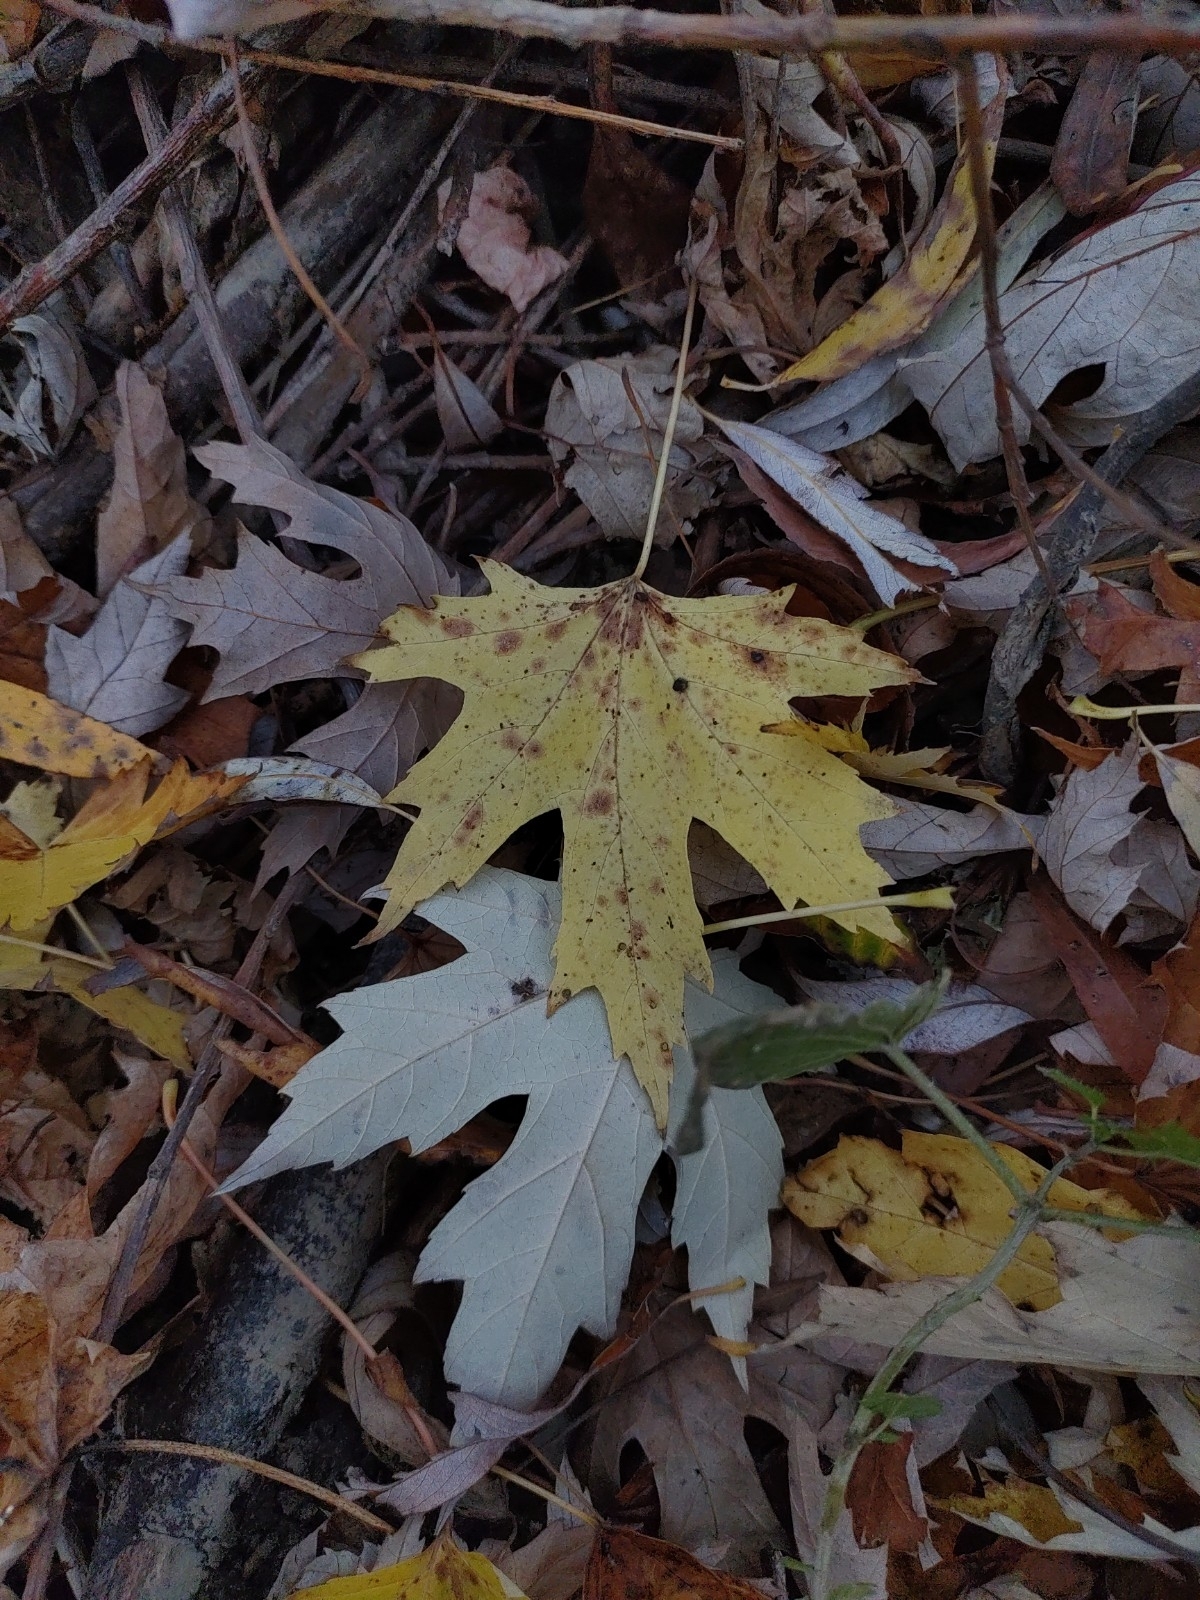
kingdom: Plantae
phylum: Tracheophyta
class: Magnoliopsida
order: Sapindales
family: Sapindaceae
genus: Acer
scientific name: Acer saccharinum
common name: Silver maple
